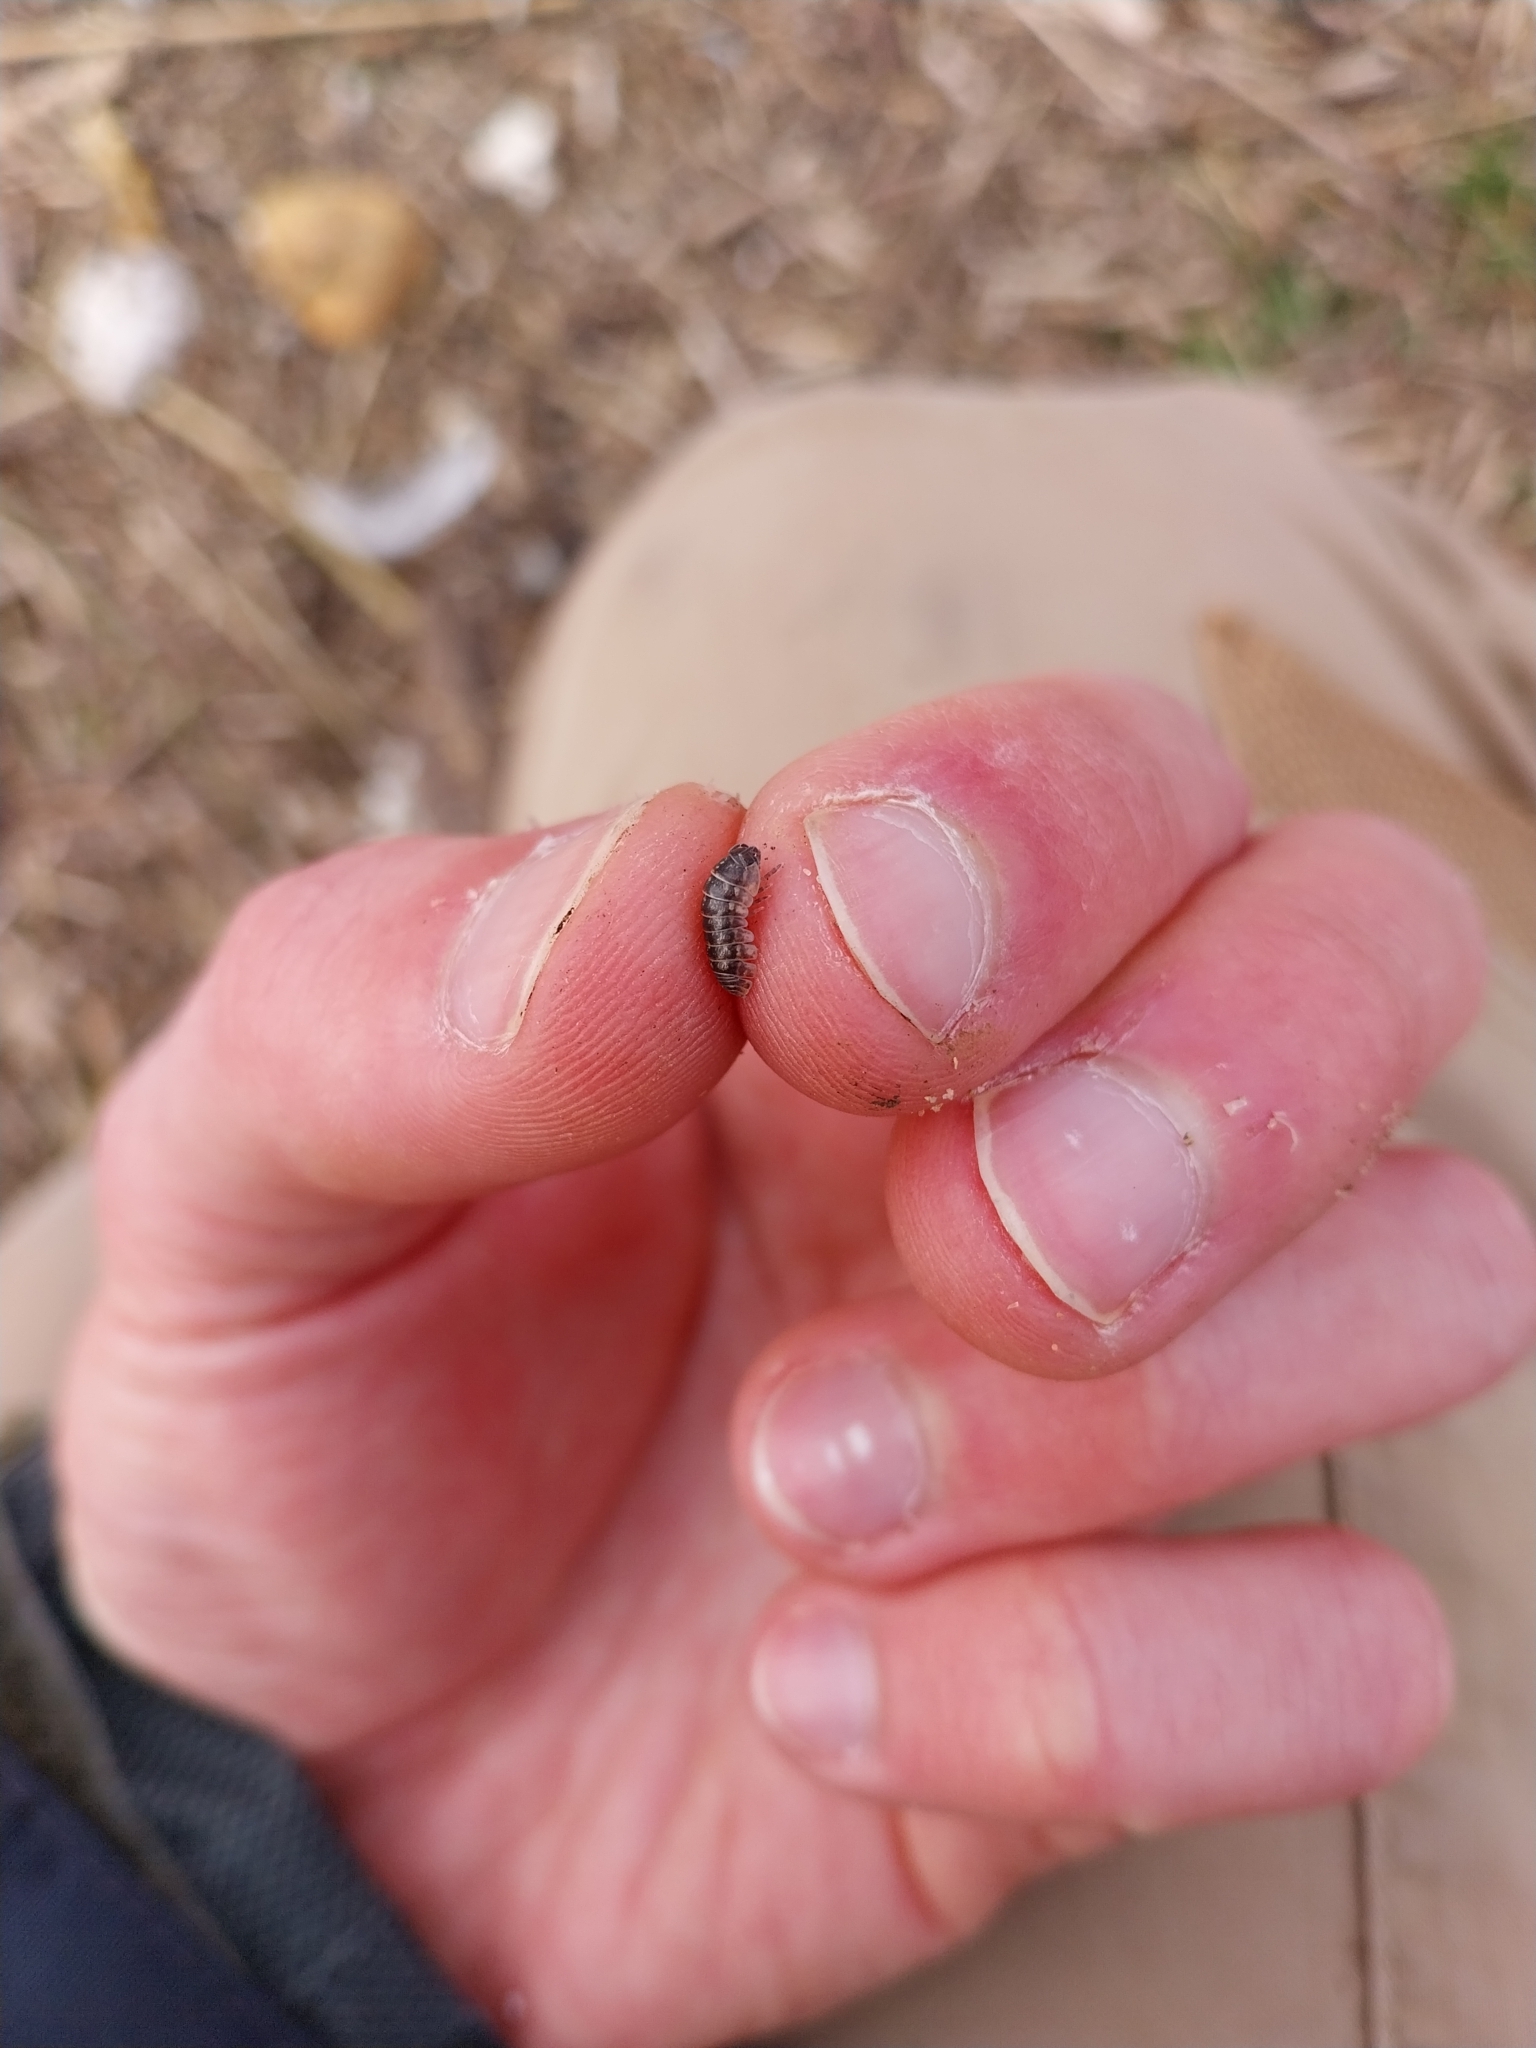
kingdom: Animalia
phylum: Arthropoda
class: Malacostraca
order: Isopoda
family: Armadillidiidae
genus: Armadillidium
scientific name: Armadillidium vulgare
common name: Common pill woodlouse
